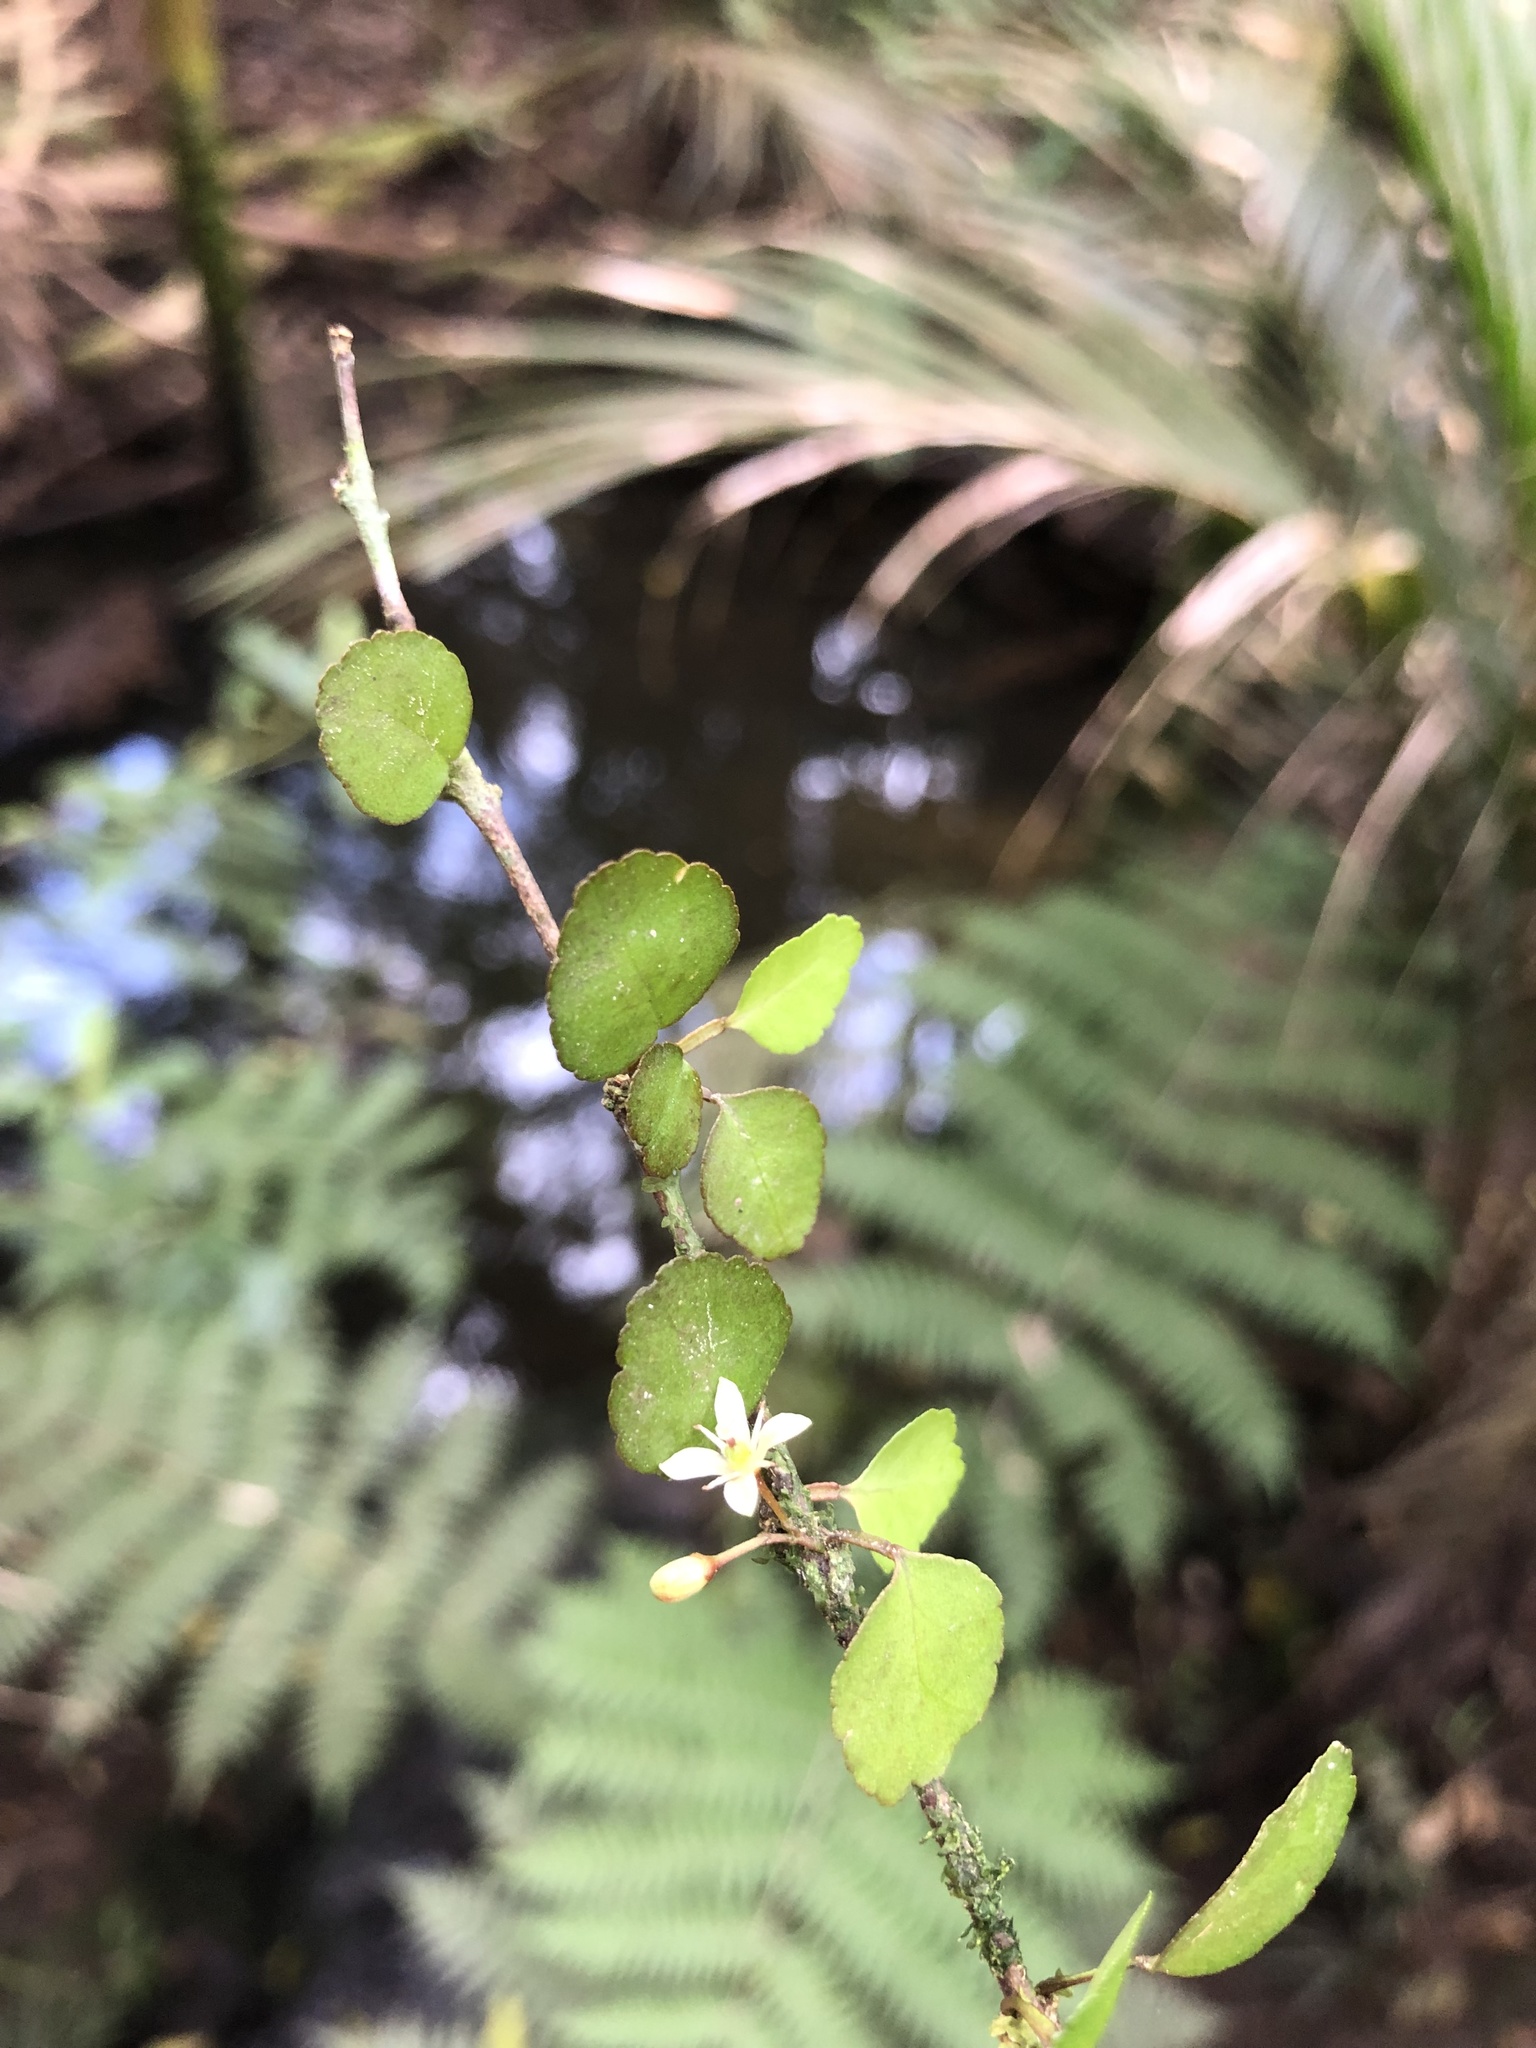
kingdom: Plantae
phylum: Tracheophyta
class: Magnoliopsida
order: Sapindales
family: Rutaceae
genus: Melicope
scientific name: Melicope simplex
